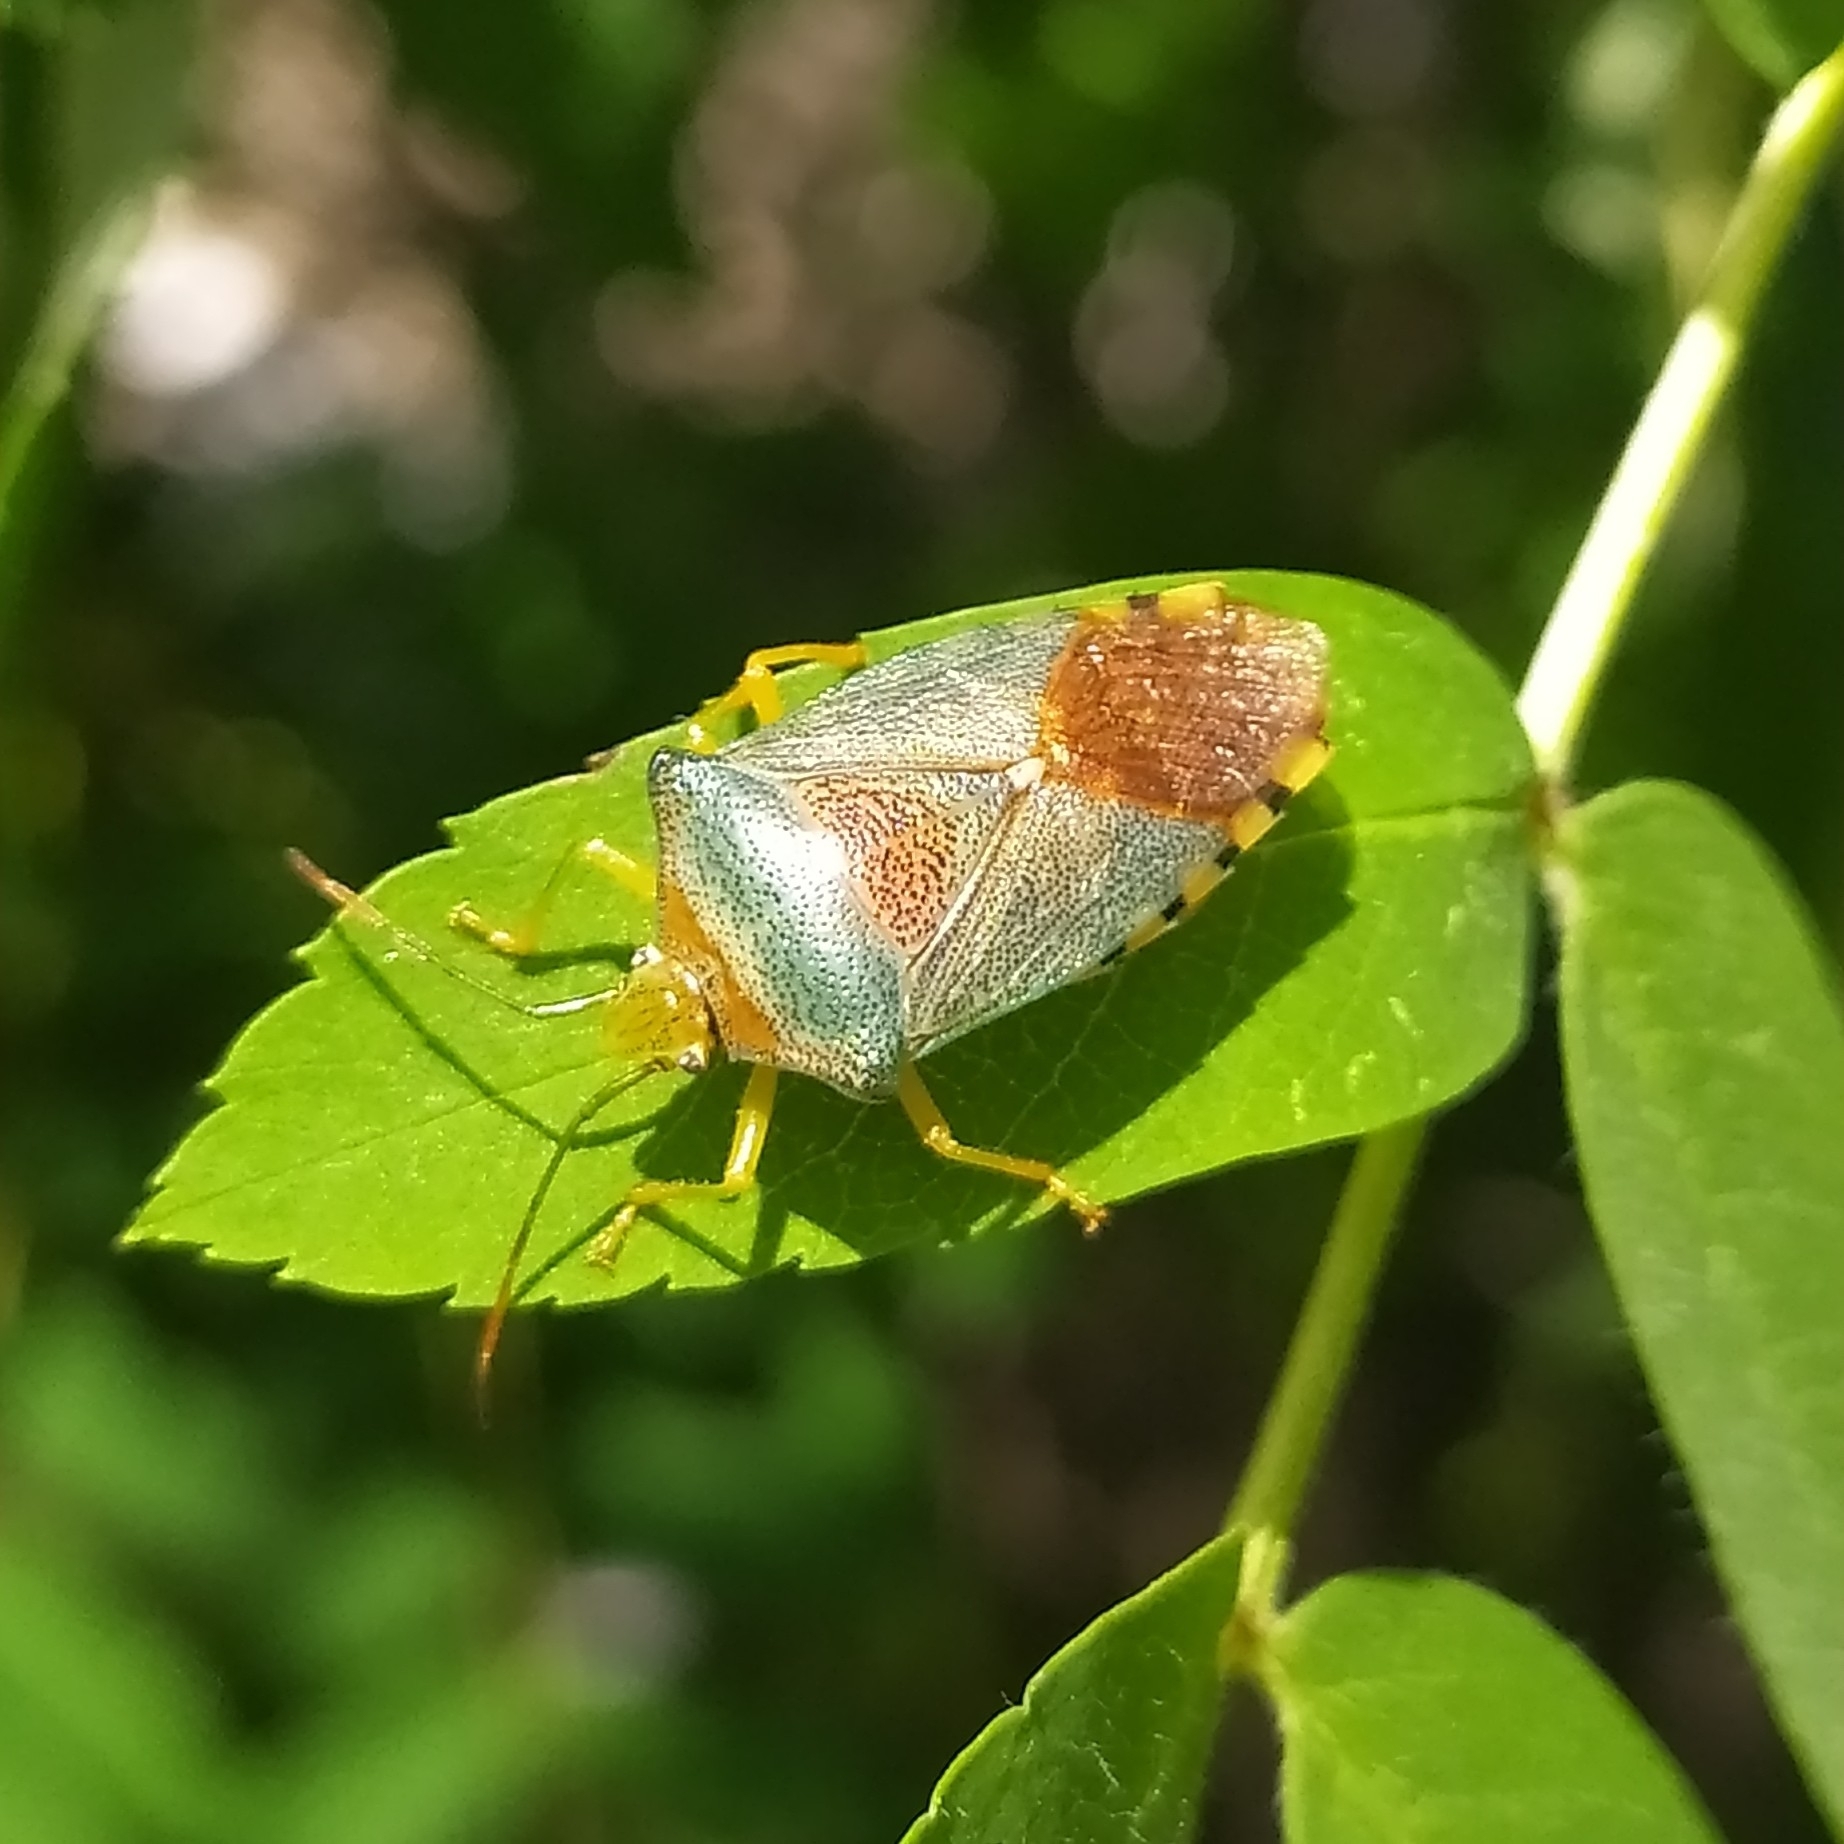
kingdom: Animalia
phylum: Arthropoda
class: Insecta
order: Hemiptera
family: Acanthosomatidae
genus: Acanthosoma
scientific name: Acanthosoma denticaudum
